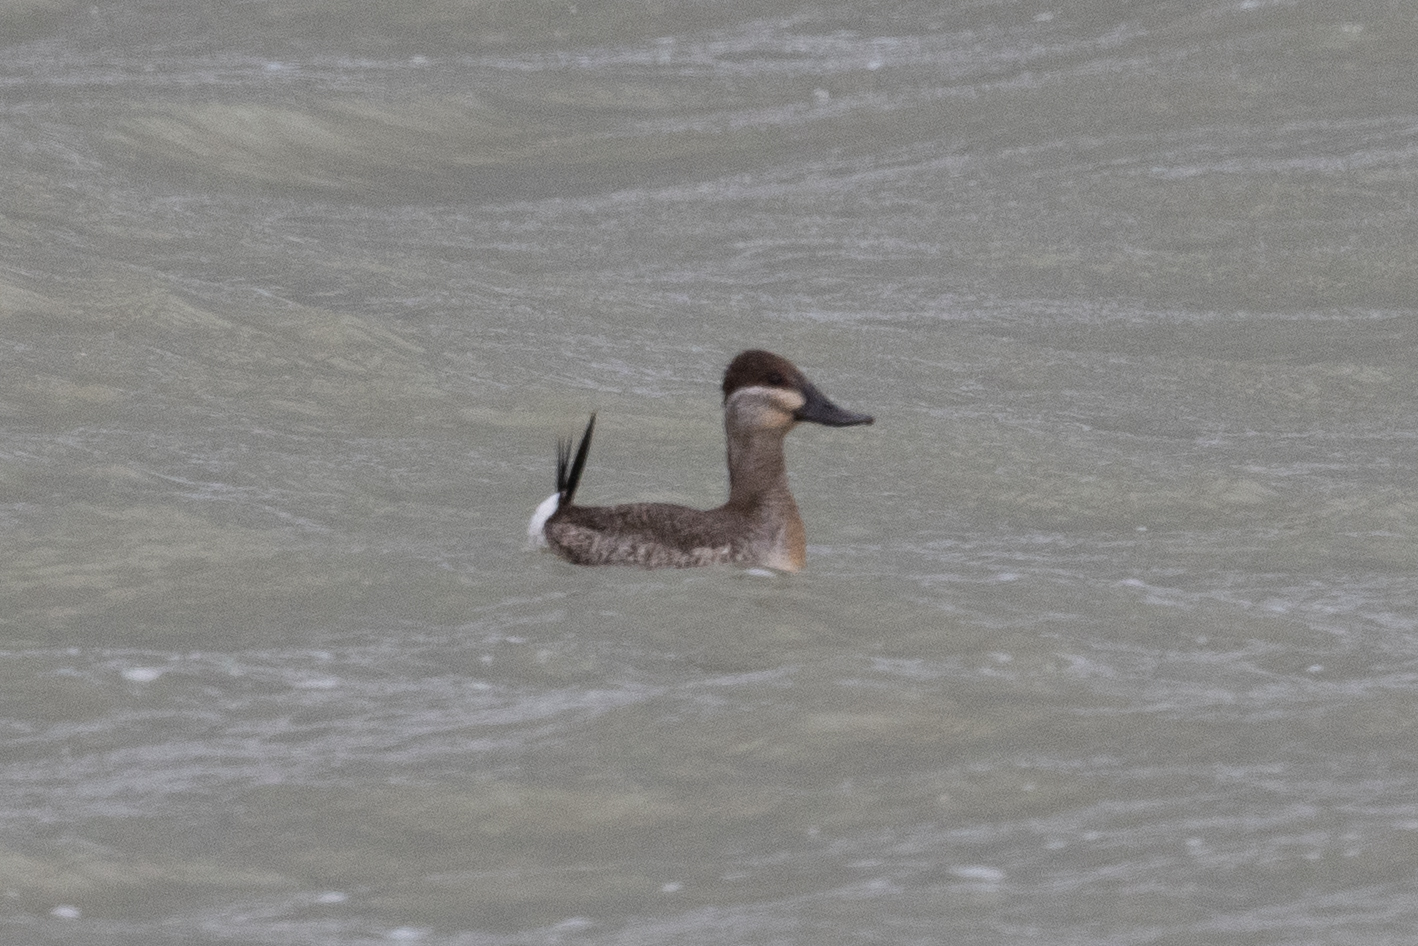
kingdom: Animalia
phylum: Chordata
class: Aves
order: Anseriformes
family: Anatidae
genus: Oxyura
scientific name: Oxyura jamaicensis
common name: Ruddy duck
